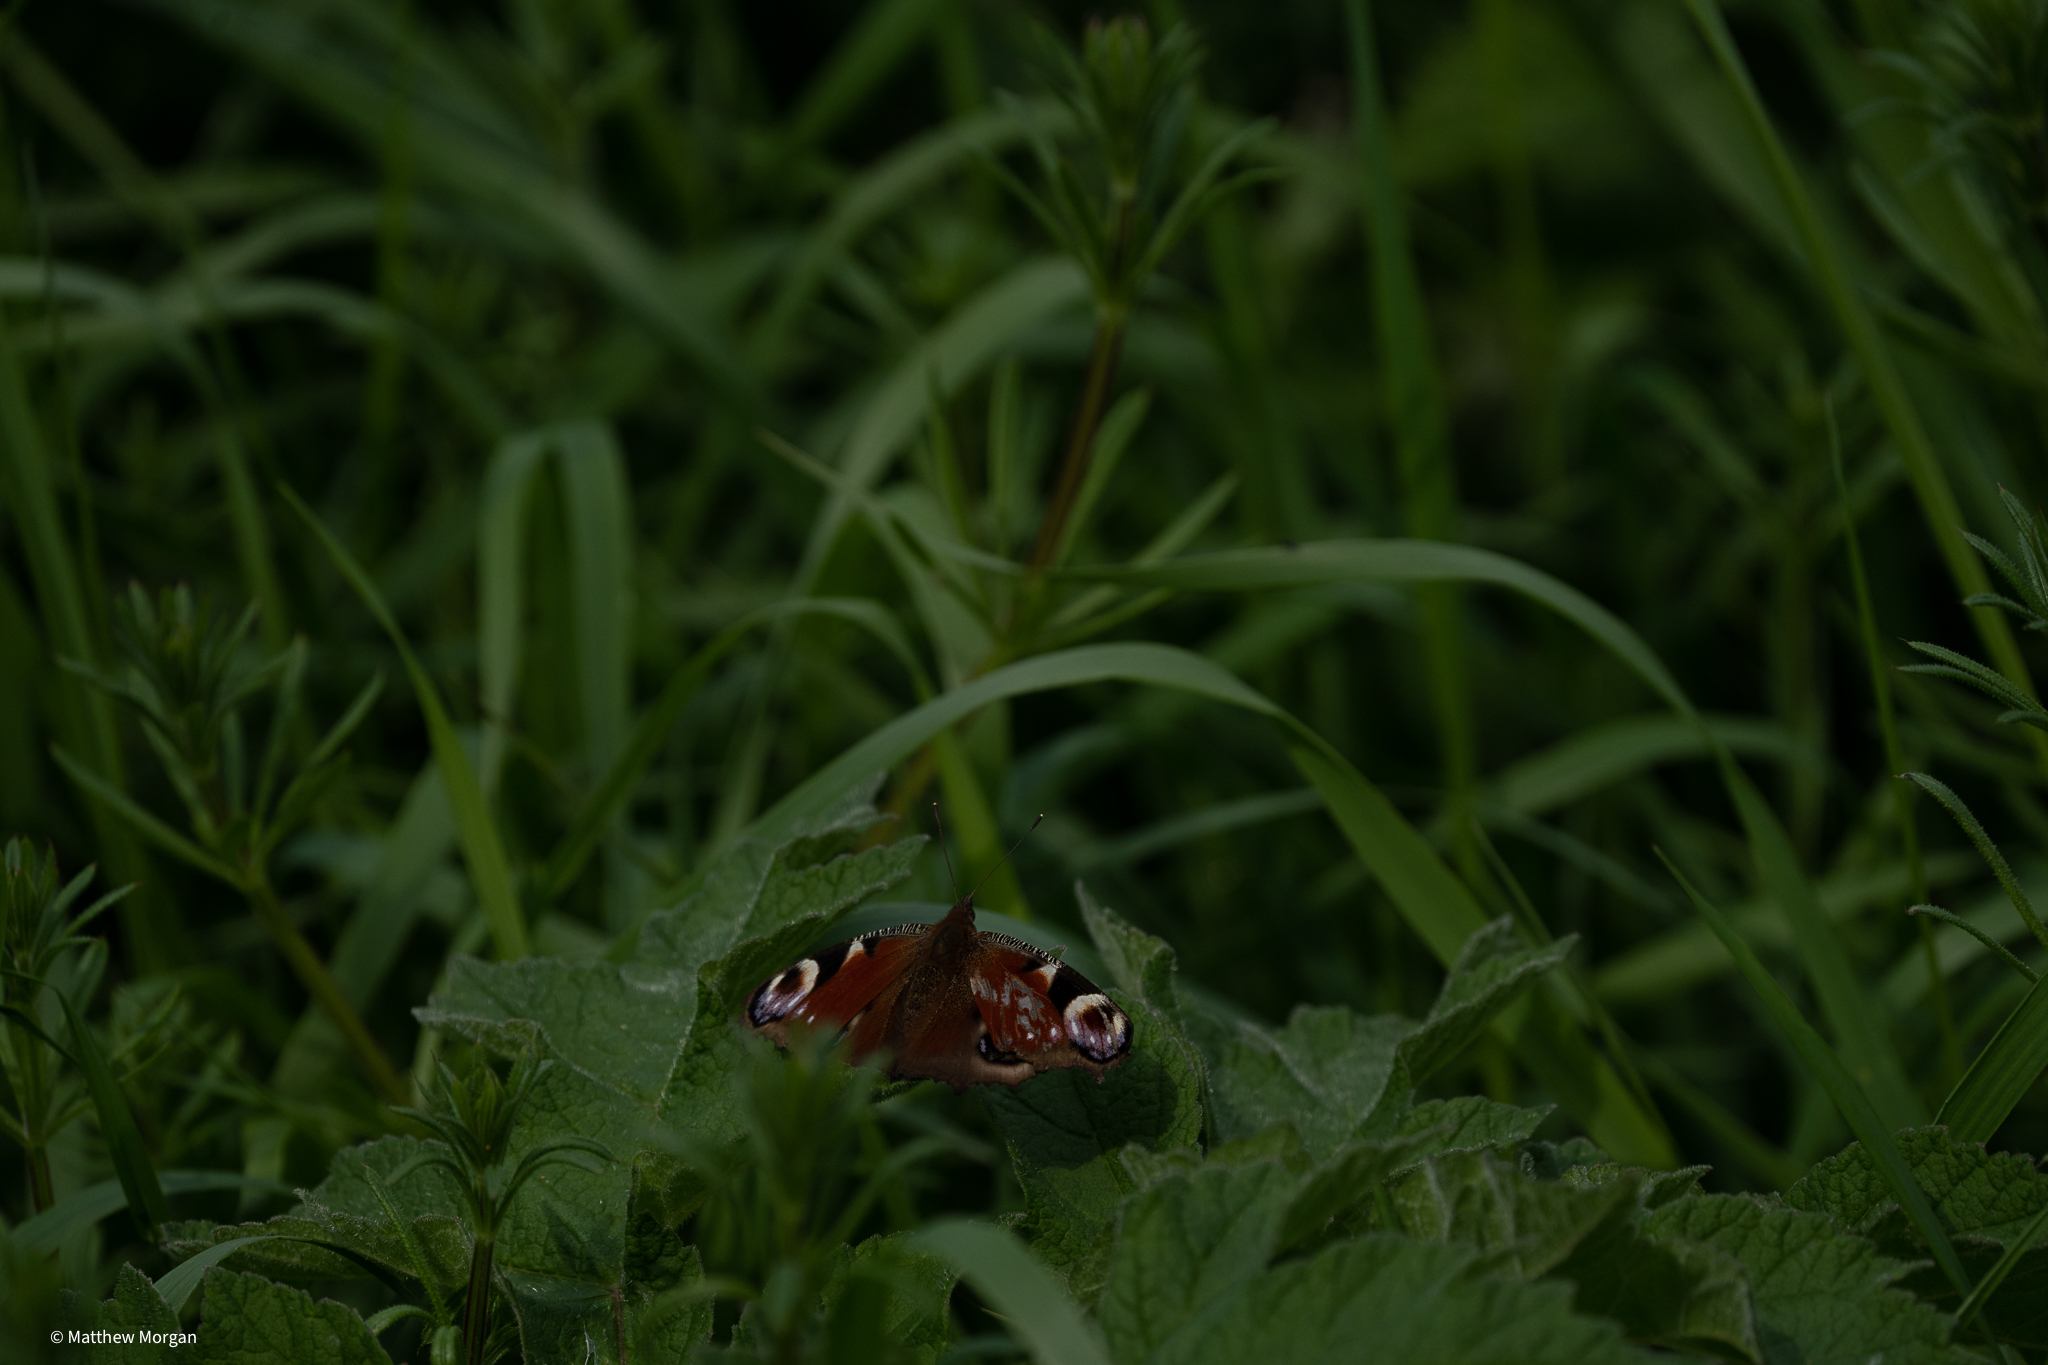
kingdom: Animalia
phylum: Arthropoda
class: Insecta
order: Lepidoptera
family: Nymphalidae
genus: Aglais
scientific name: Aglais io
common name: Peacock
